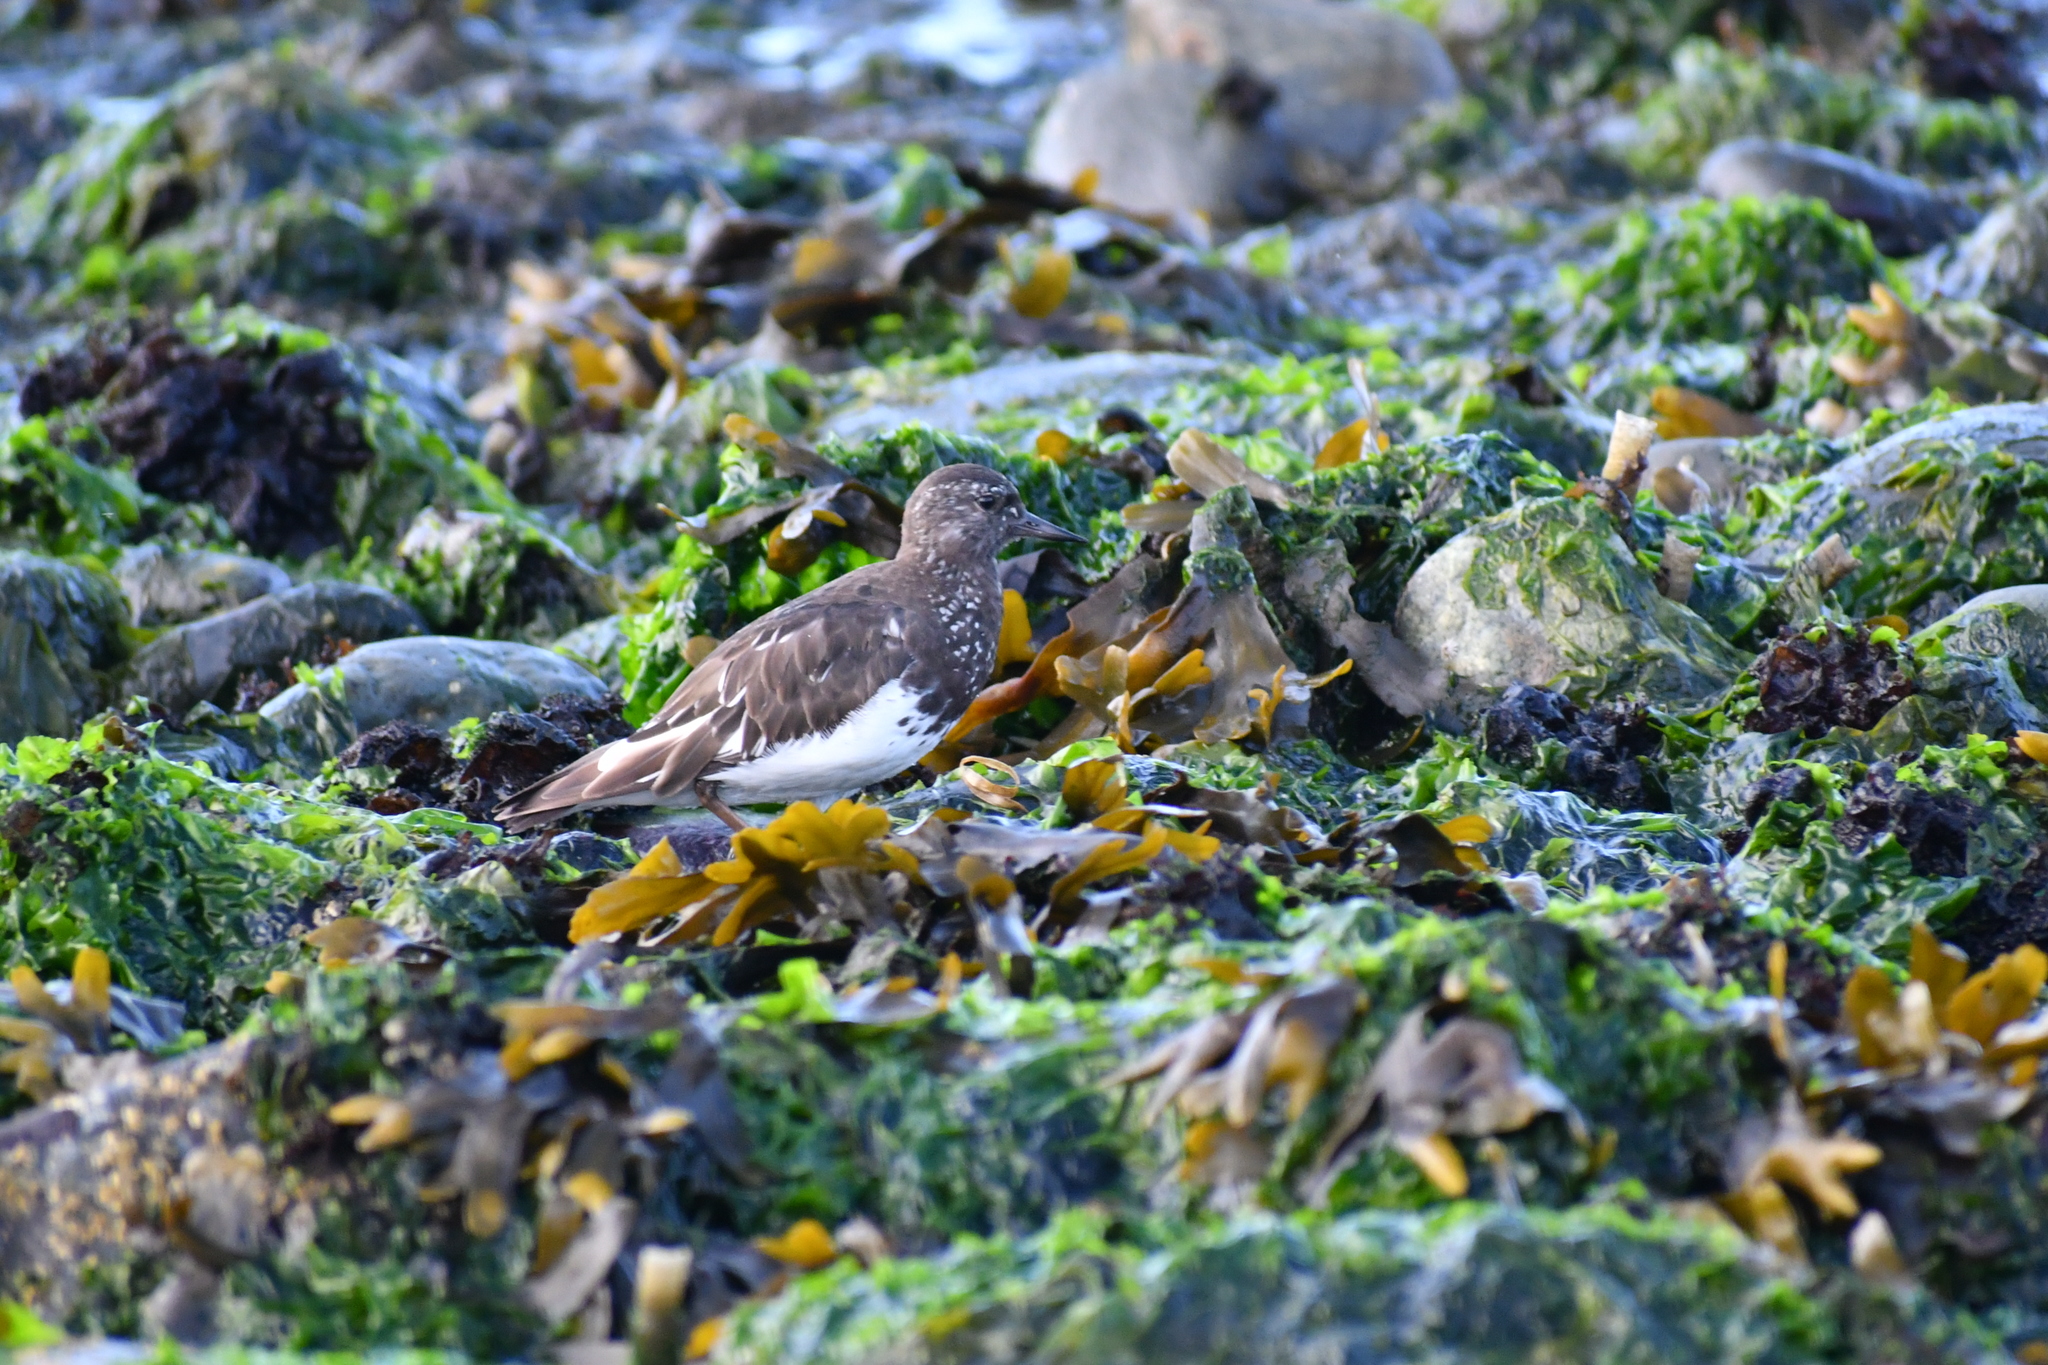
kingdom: Animalia
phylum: Chordata
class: Aves
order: Charadriiformes
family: Scolopacidae
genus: Arenaria
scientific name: Arenaria melanocephala
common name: Black turnstone
